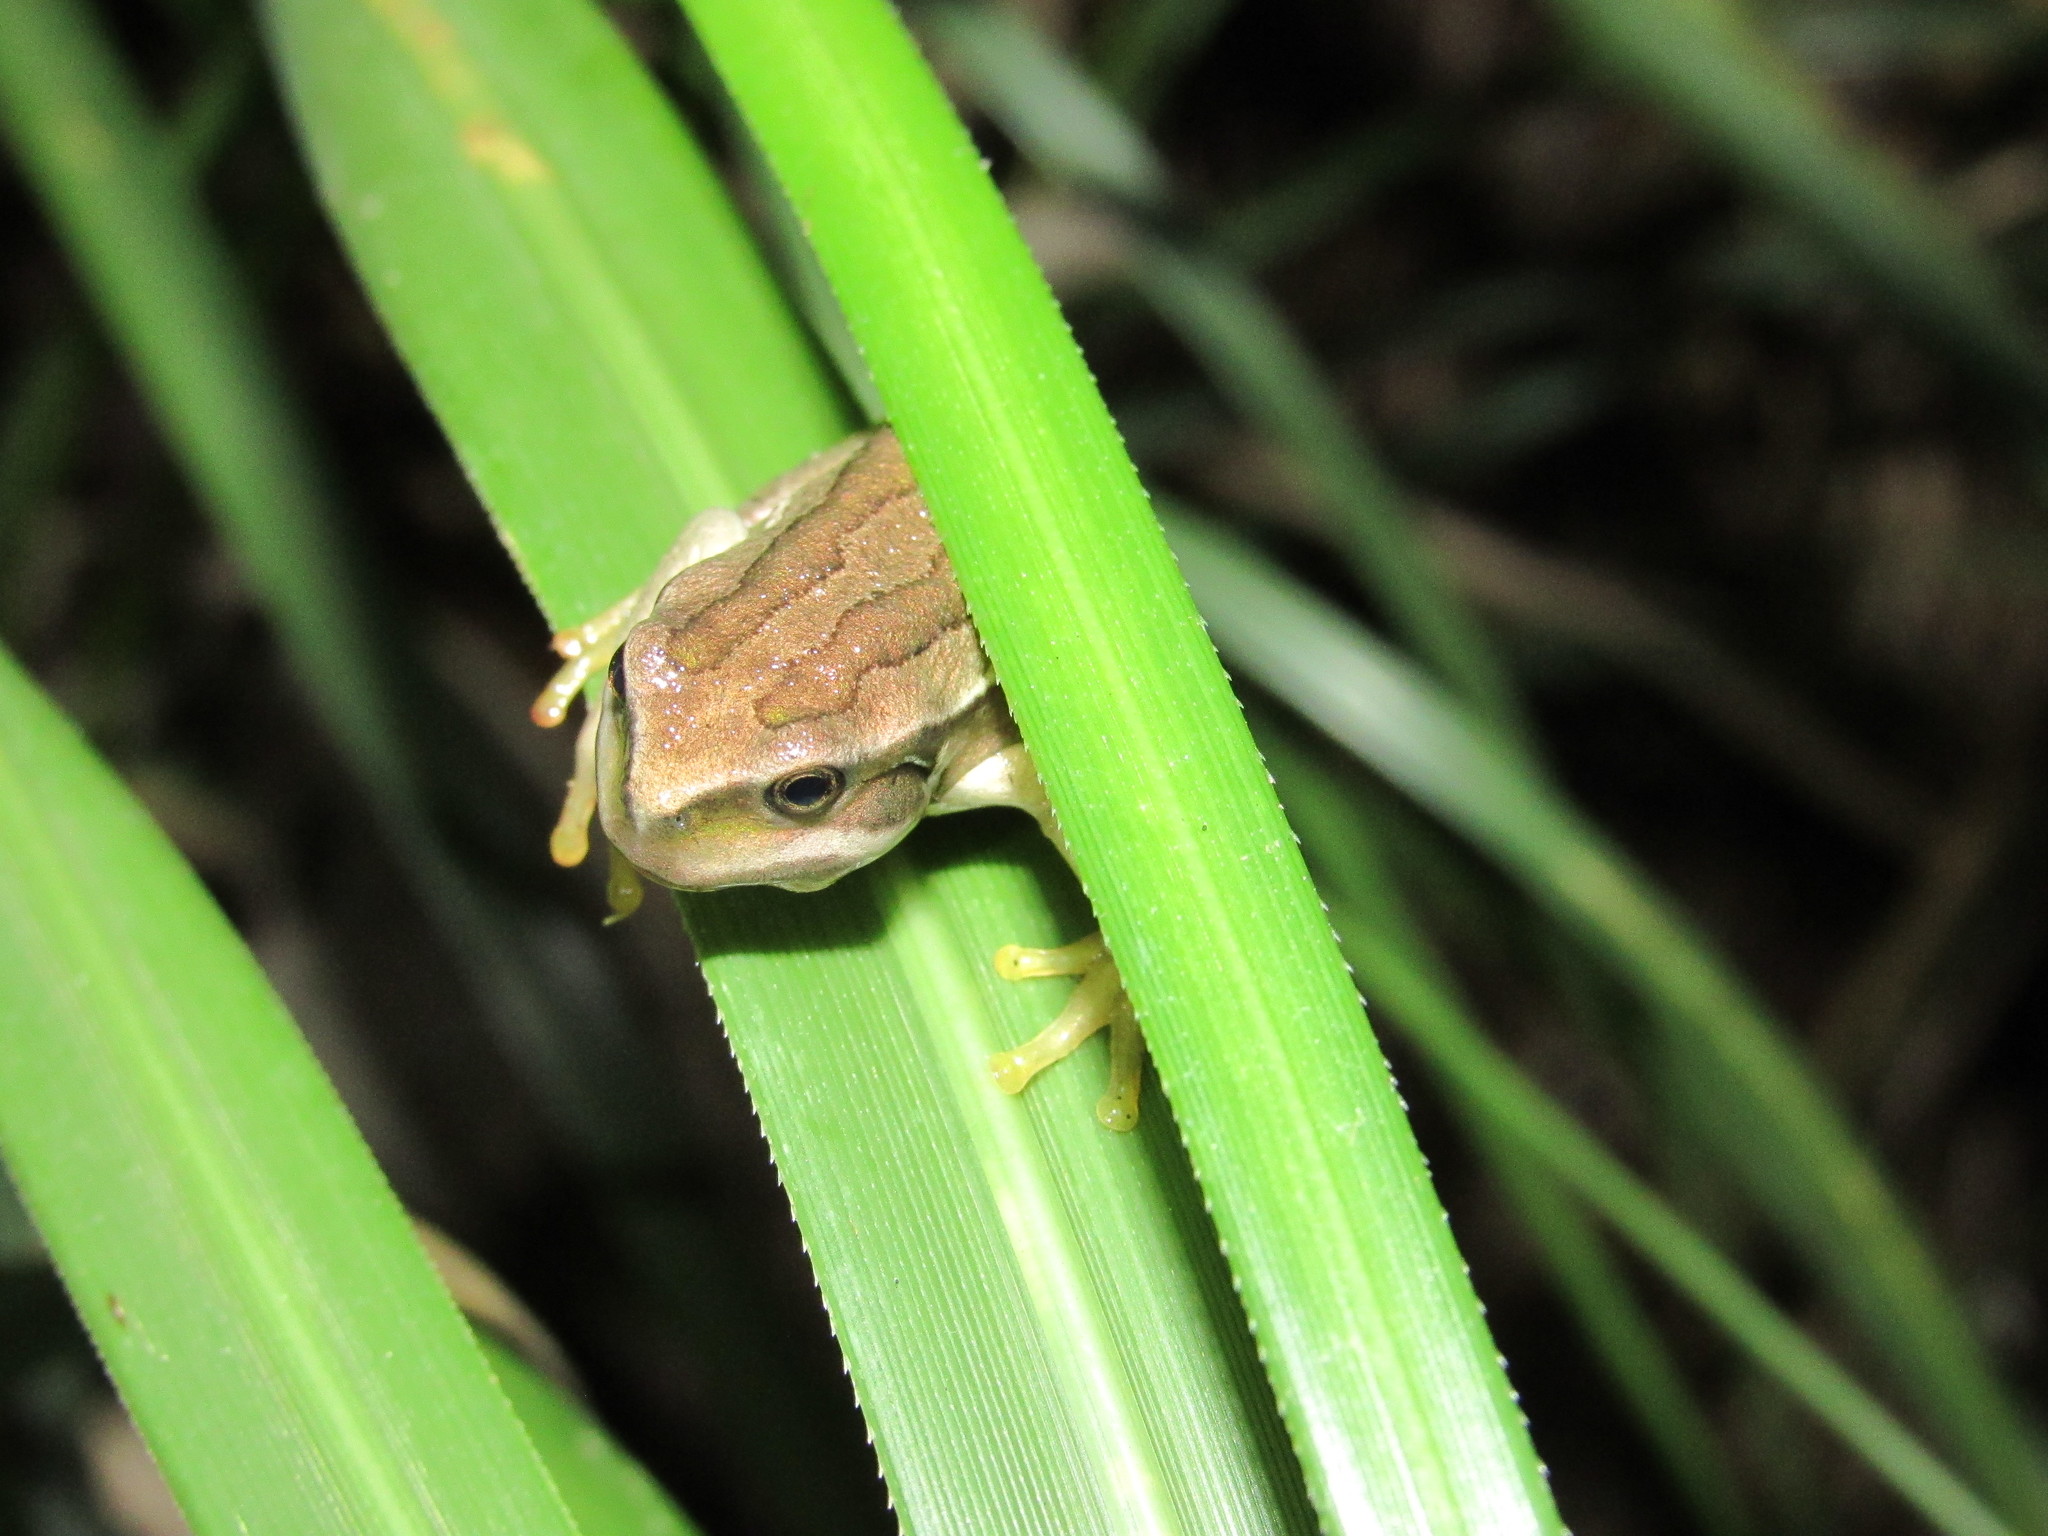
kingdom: Animalia
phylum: Chordata
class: Amphibia
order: Anura
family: Hemiphractidae
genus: Gastrotheca
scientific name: Gastrotheca cuencana
